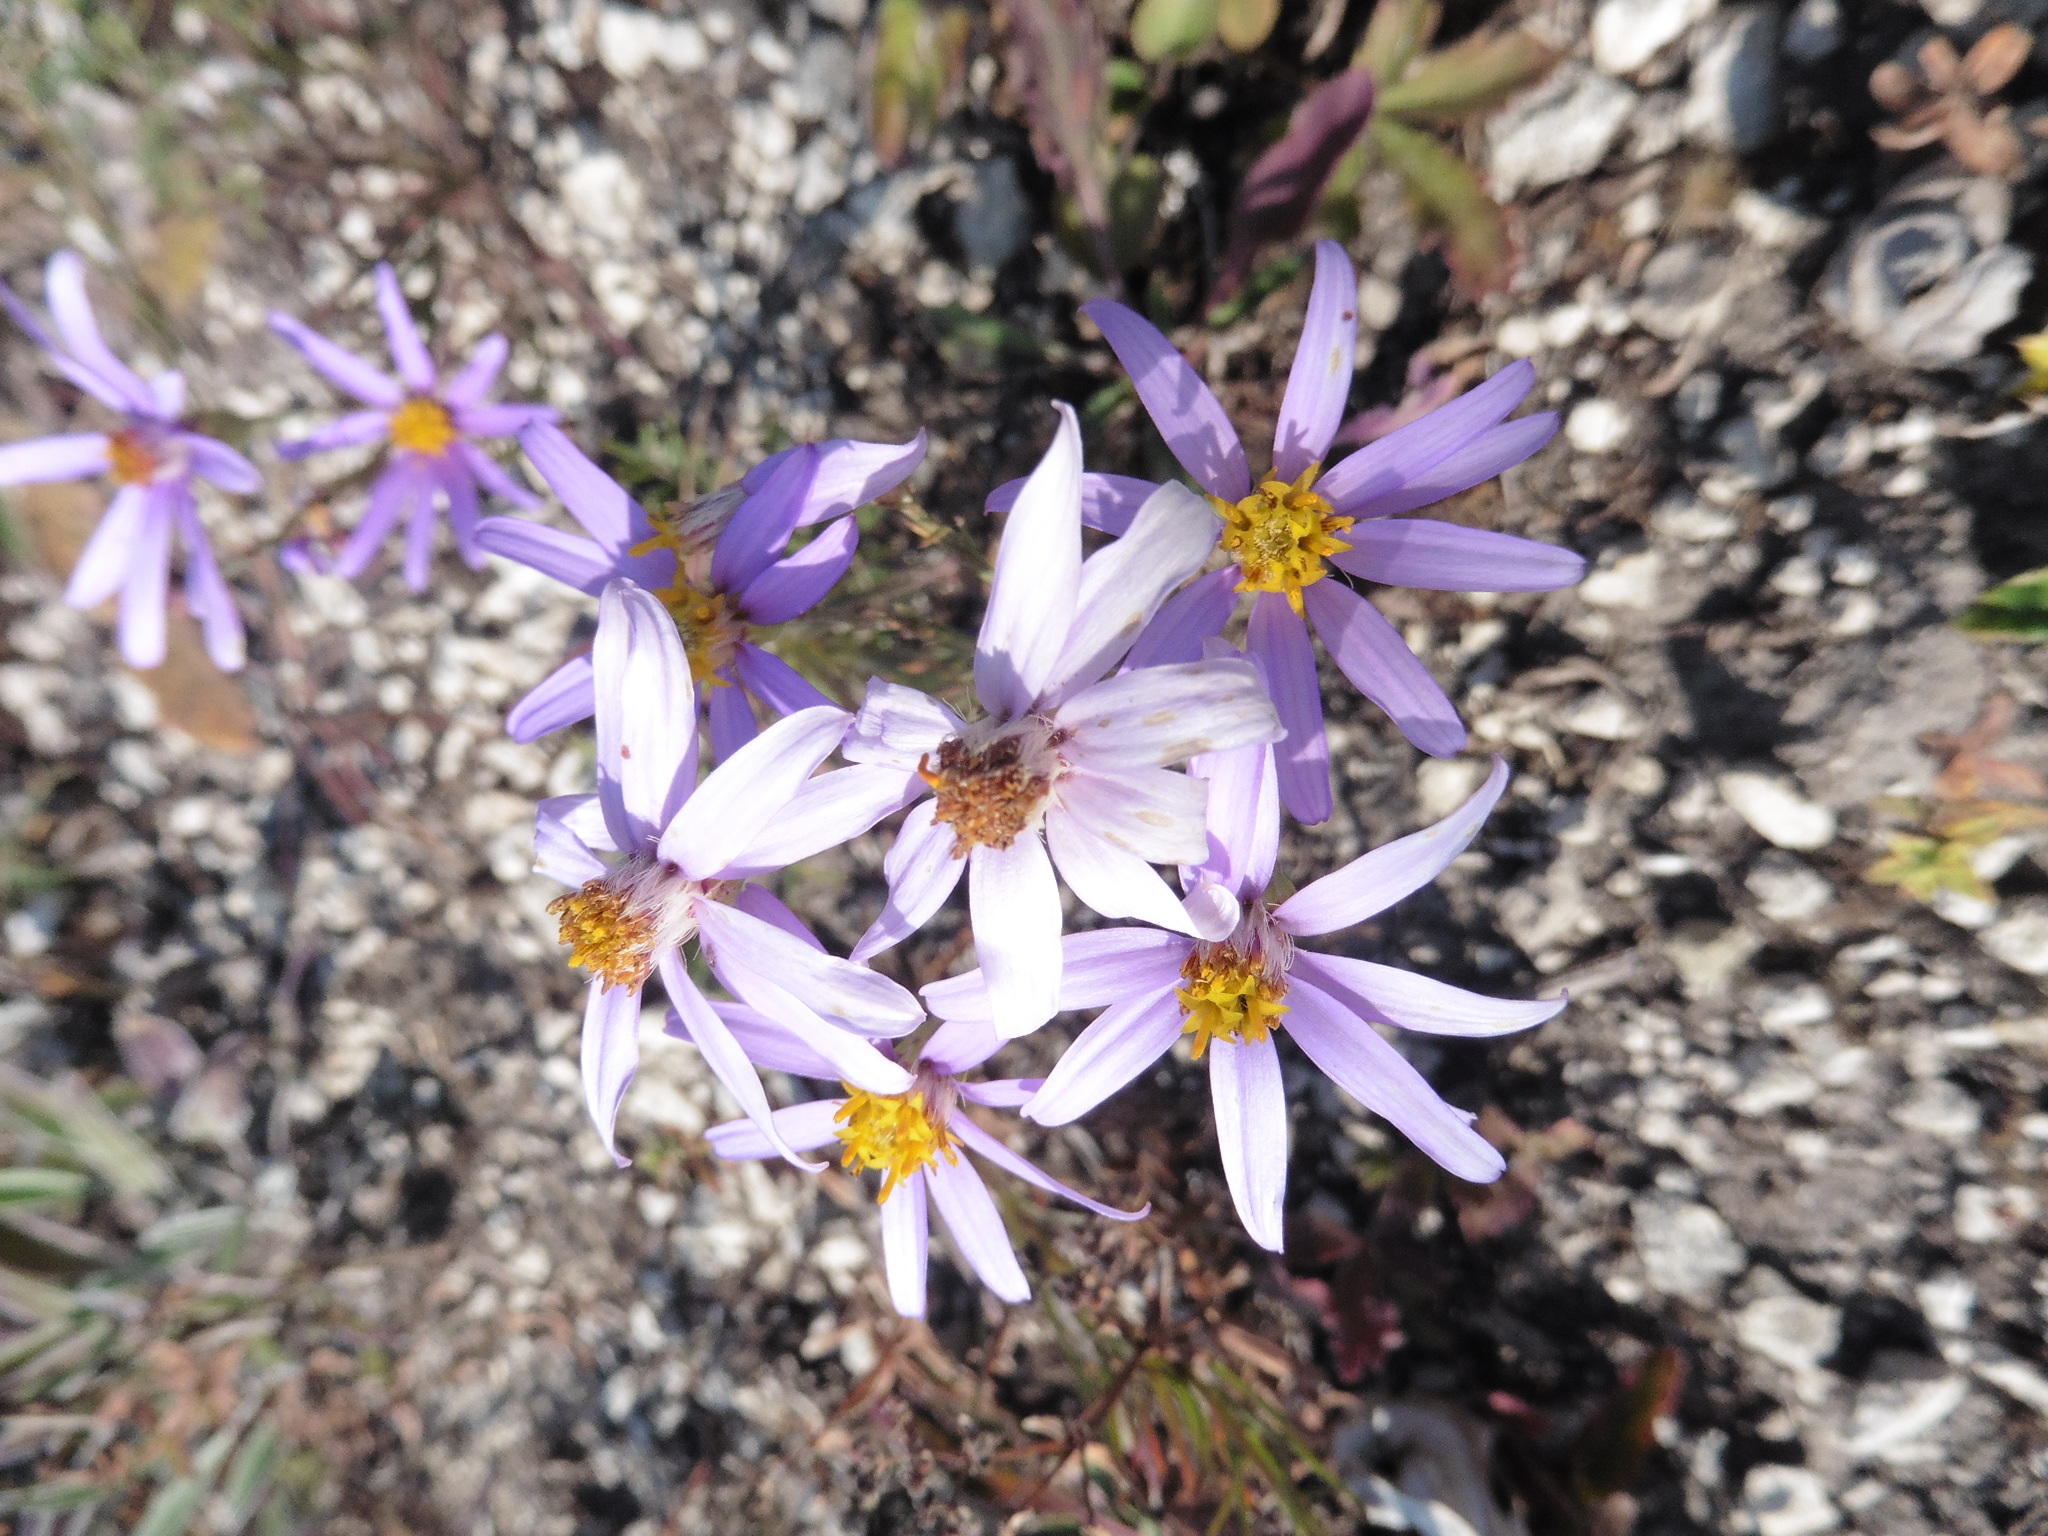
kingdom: Plantae
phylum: Tracheophyta
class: Magnoliopsida
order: Asterales
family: Asteraceae
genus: Galatella
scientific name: Galatella angustissima
